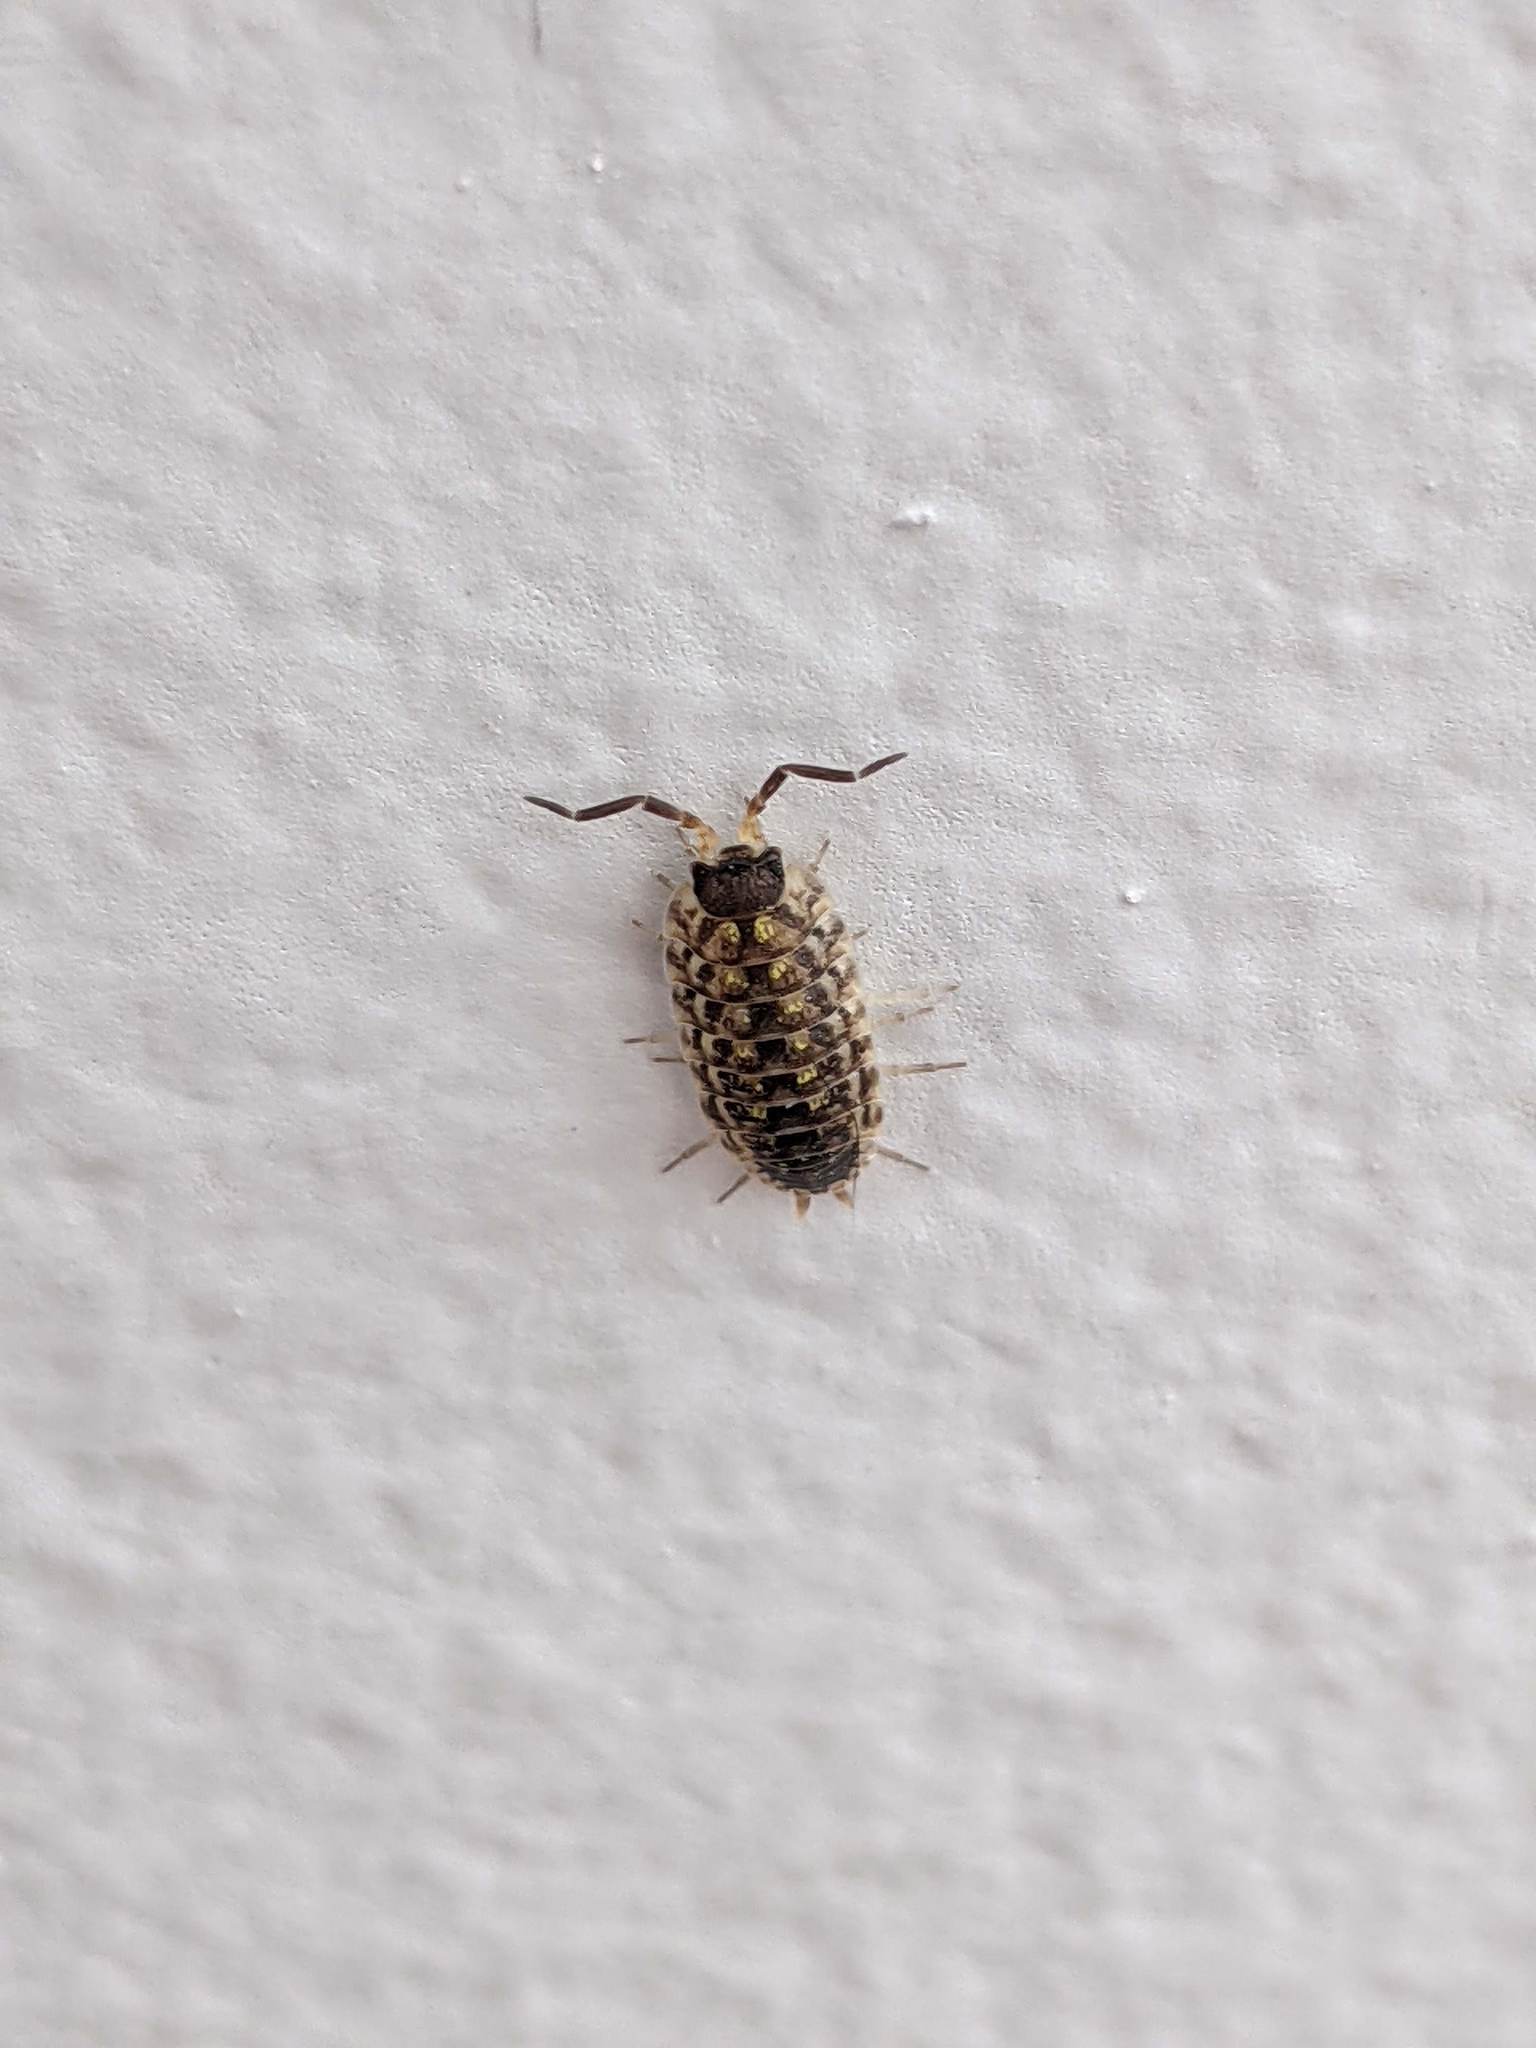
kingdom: Animalia
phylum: Arthropoda
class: Malacostraca
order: Isopoda
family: Porcellionidae
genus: Porcellio
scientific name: Porcellio spinicornis
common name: Painted woodlouse
